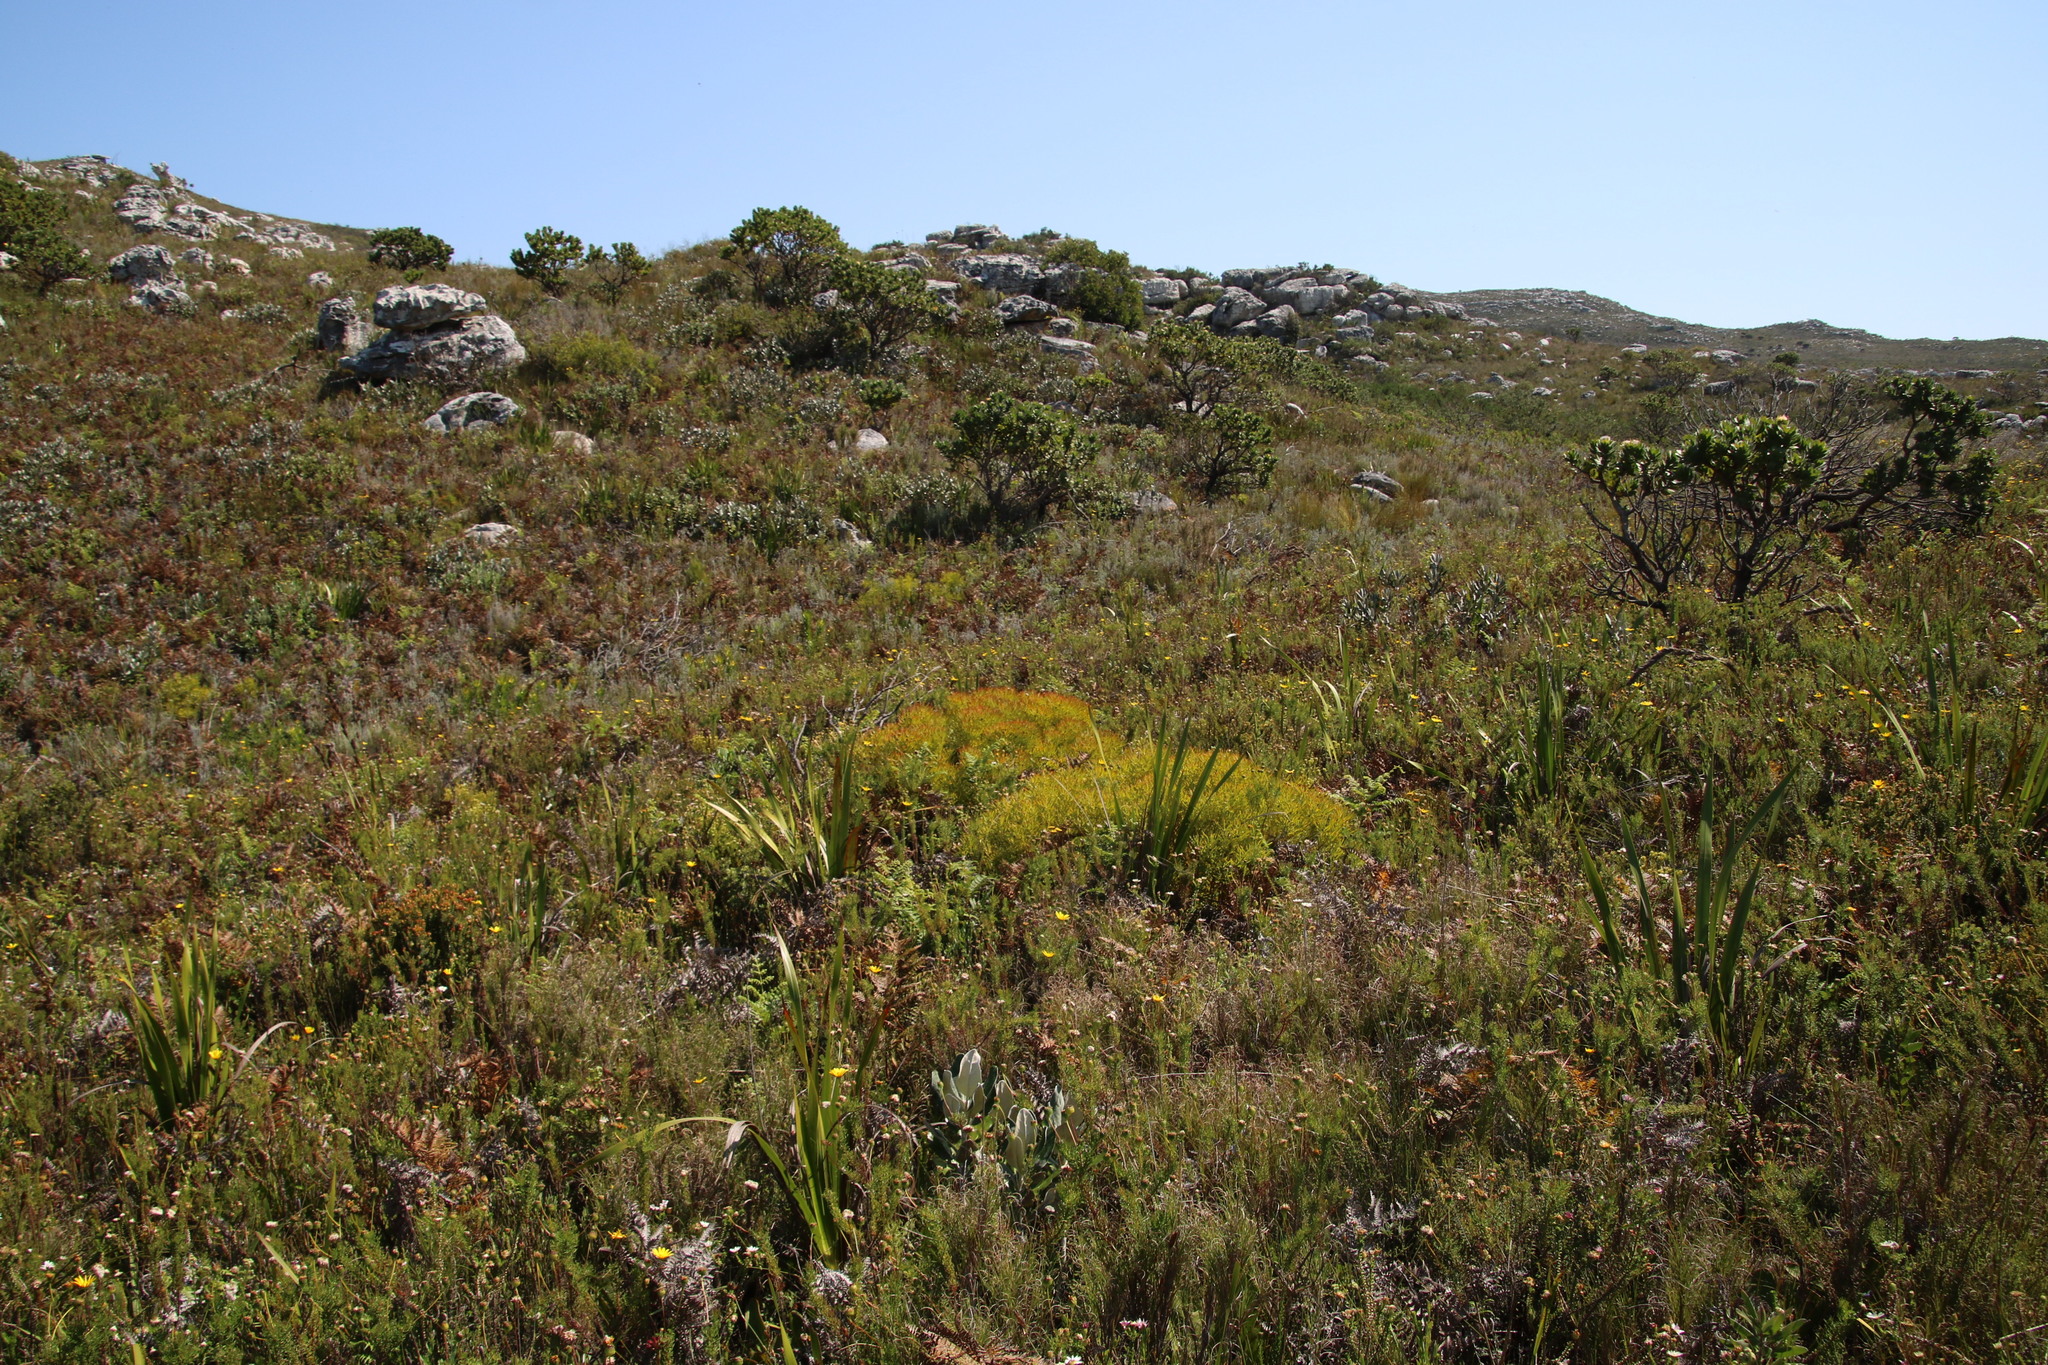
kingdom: Plantae
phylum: Tracheophyta
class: Magnoliopsida
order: Proteales
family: Proteaceae
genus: Leucadendron
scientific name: Leucadendron salignum
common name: Common sunshine conebush
